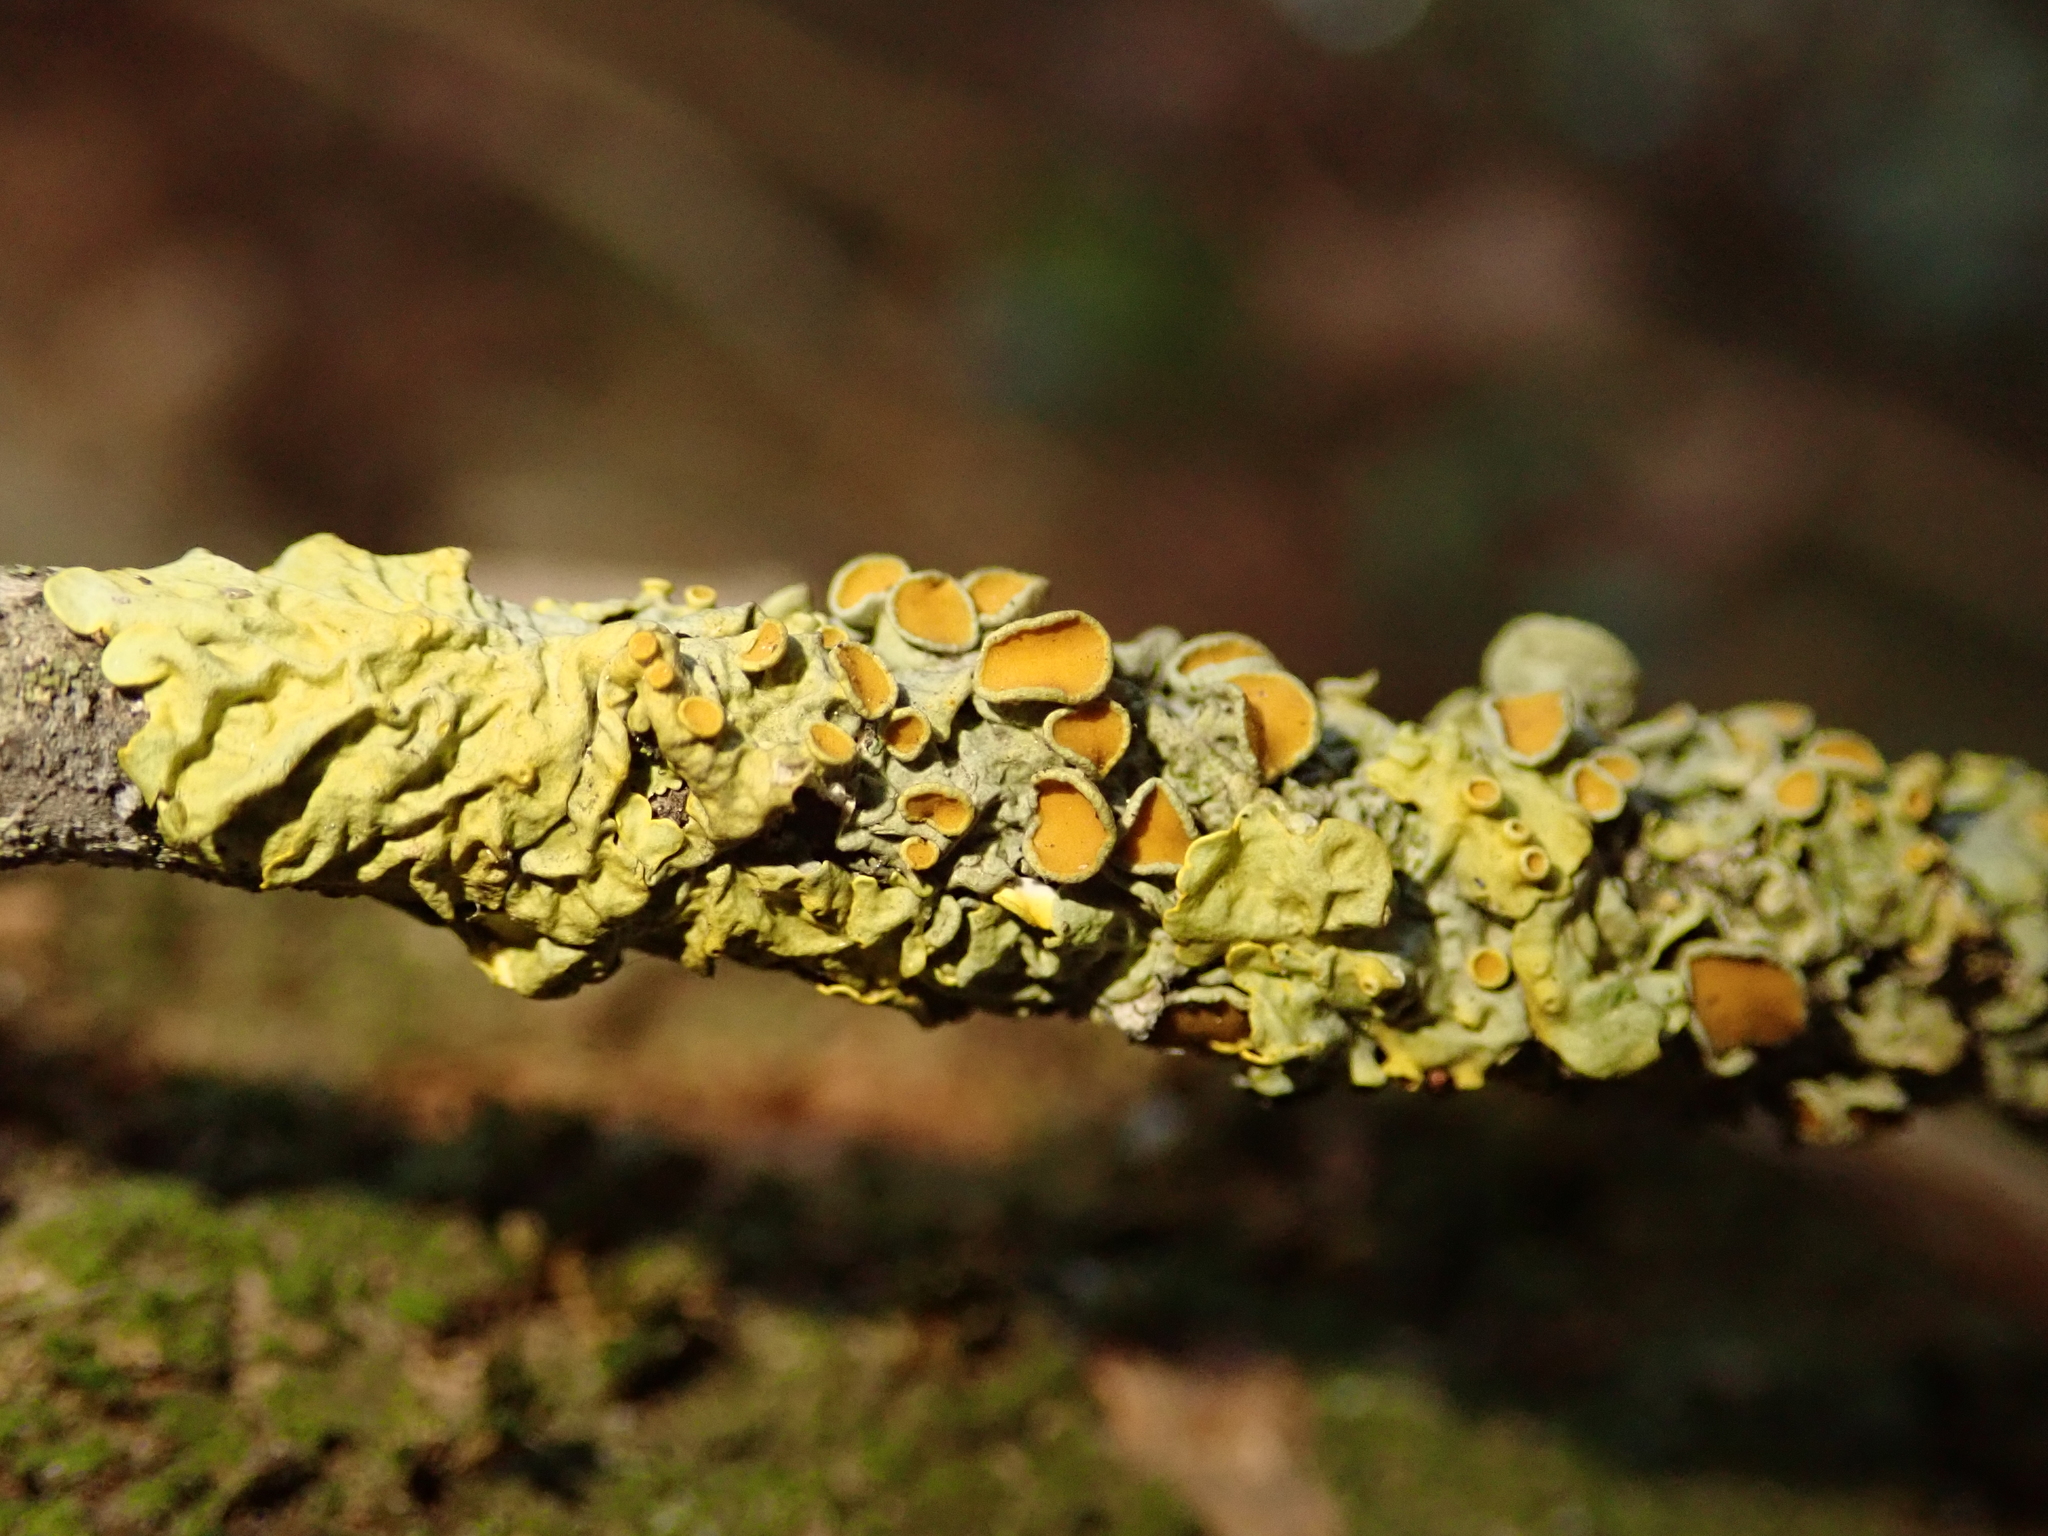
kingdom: Fungi
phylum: Ascomycota
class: Lecanoromycetes
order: Teloschistales
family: Teloschistaceae
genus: Xanthoria
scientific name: Xanthoria parietina
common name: Common orange lichen
